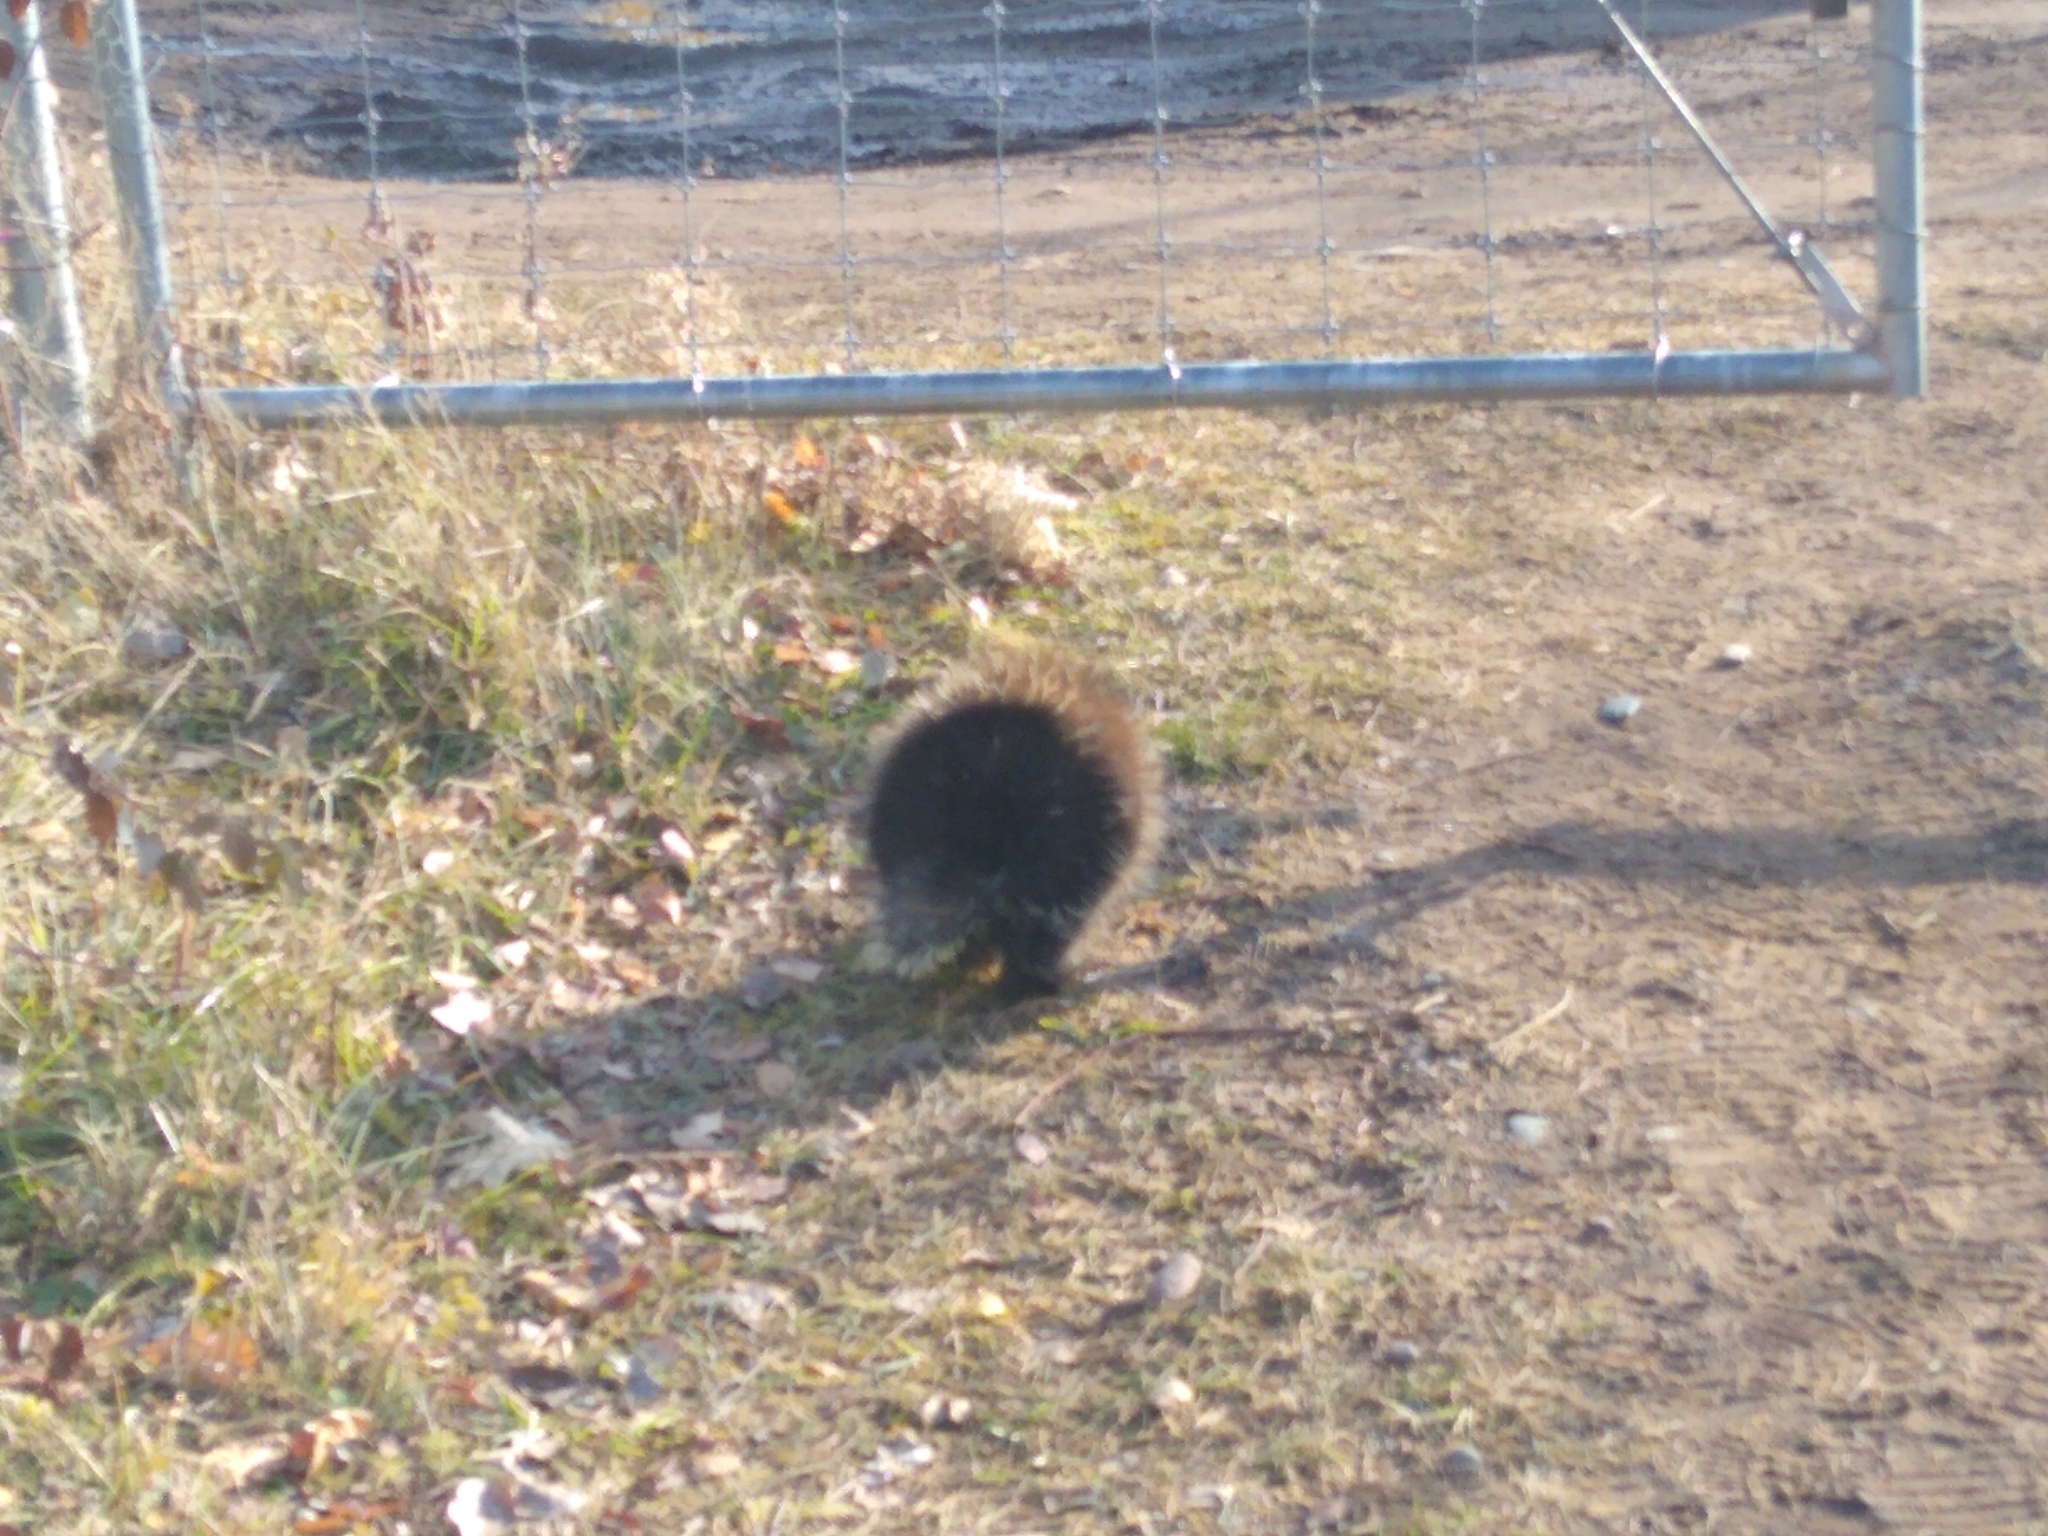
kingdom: Animalia
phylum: Chordata
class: Mammalia
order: Rodentia
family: Erethizontidae
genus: Erethizon
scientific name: Erethizon dorsatus
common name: North american porcupine
